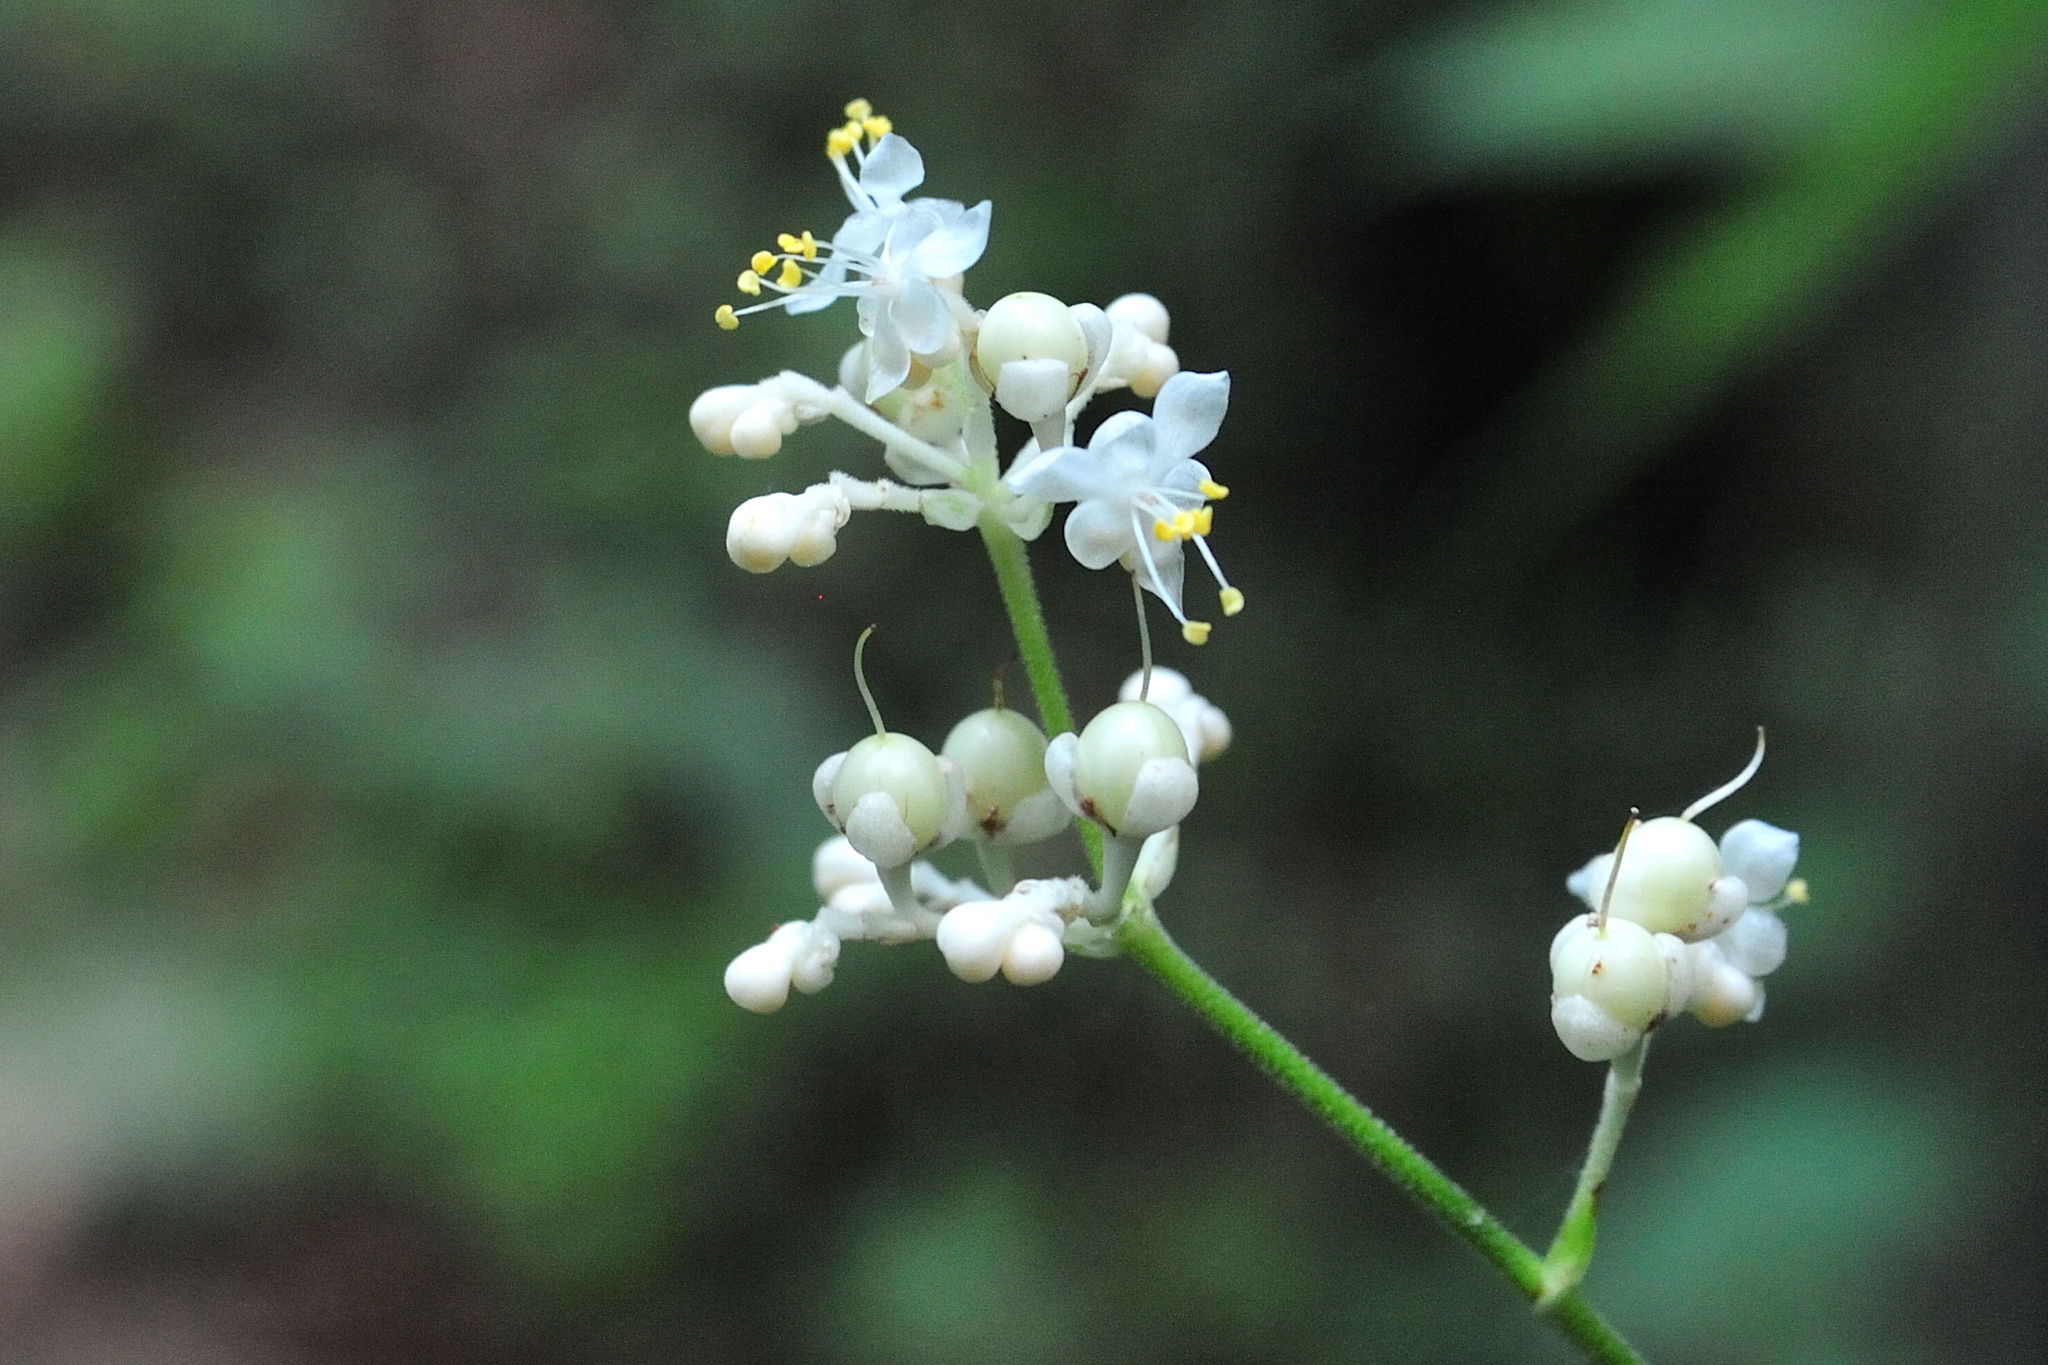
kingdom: Plantae
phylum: Tracheophyta
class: Liliopsida
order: Commelinales
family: Commelinaceae
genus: Pollia
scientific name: Pollia japonica
